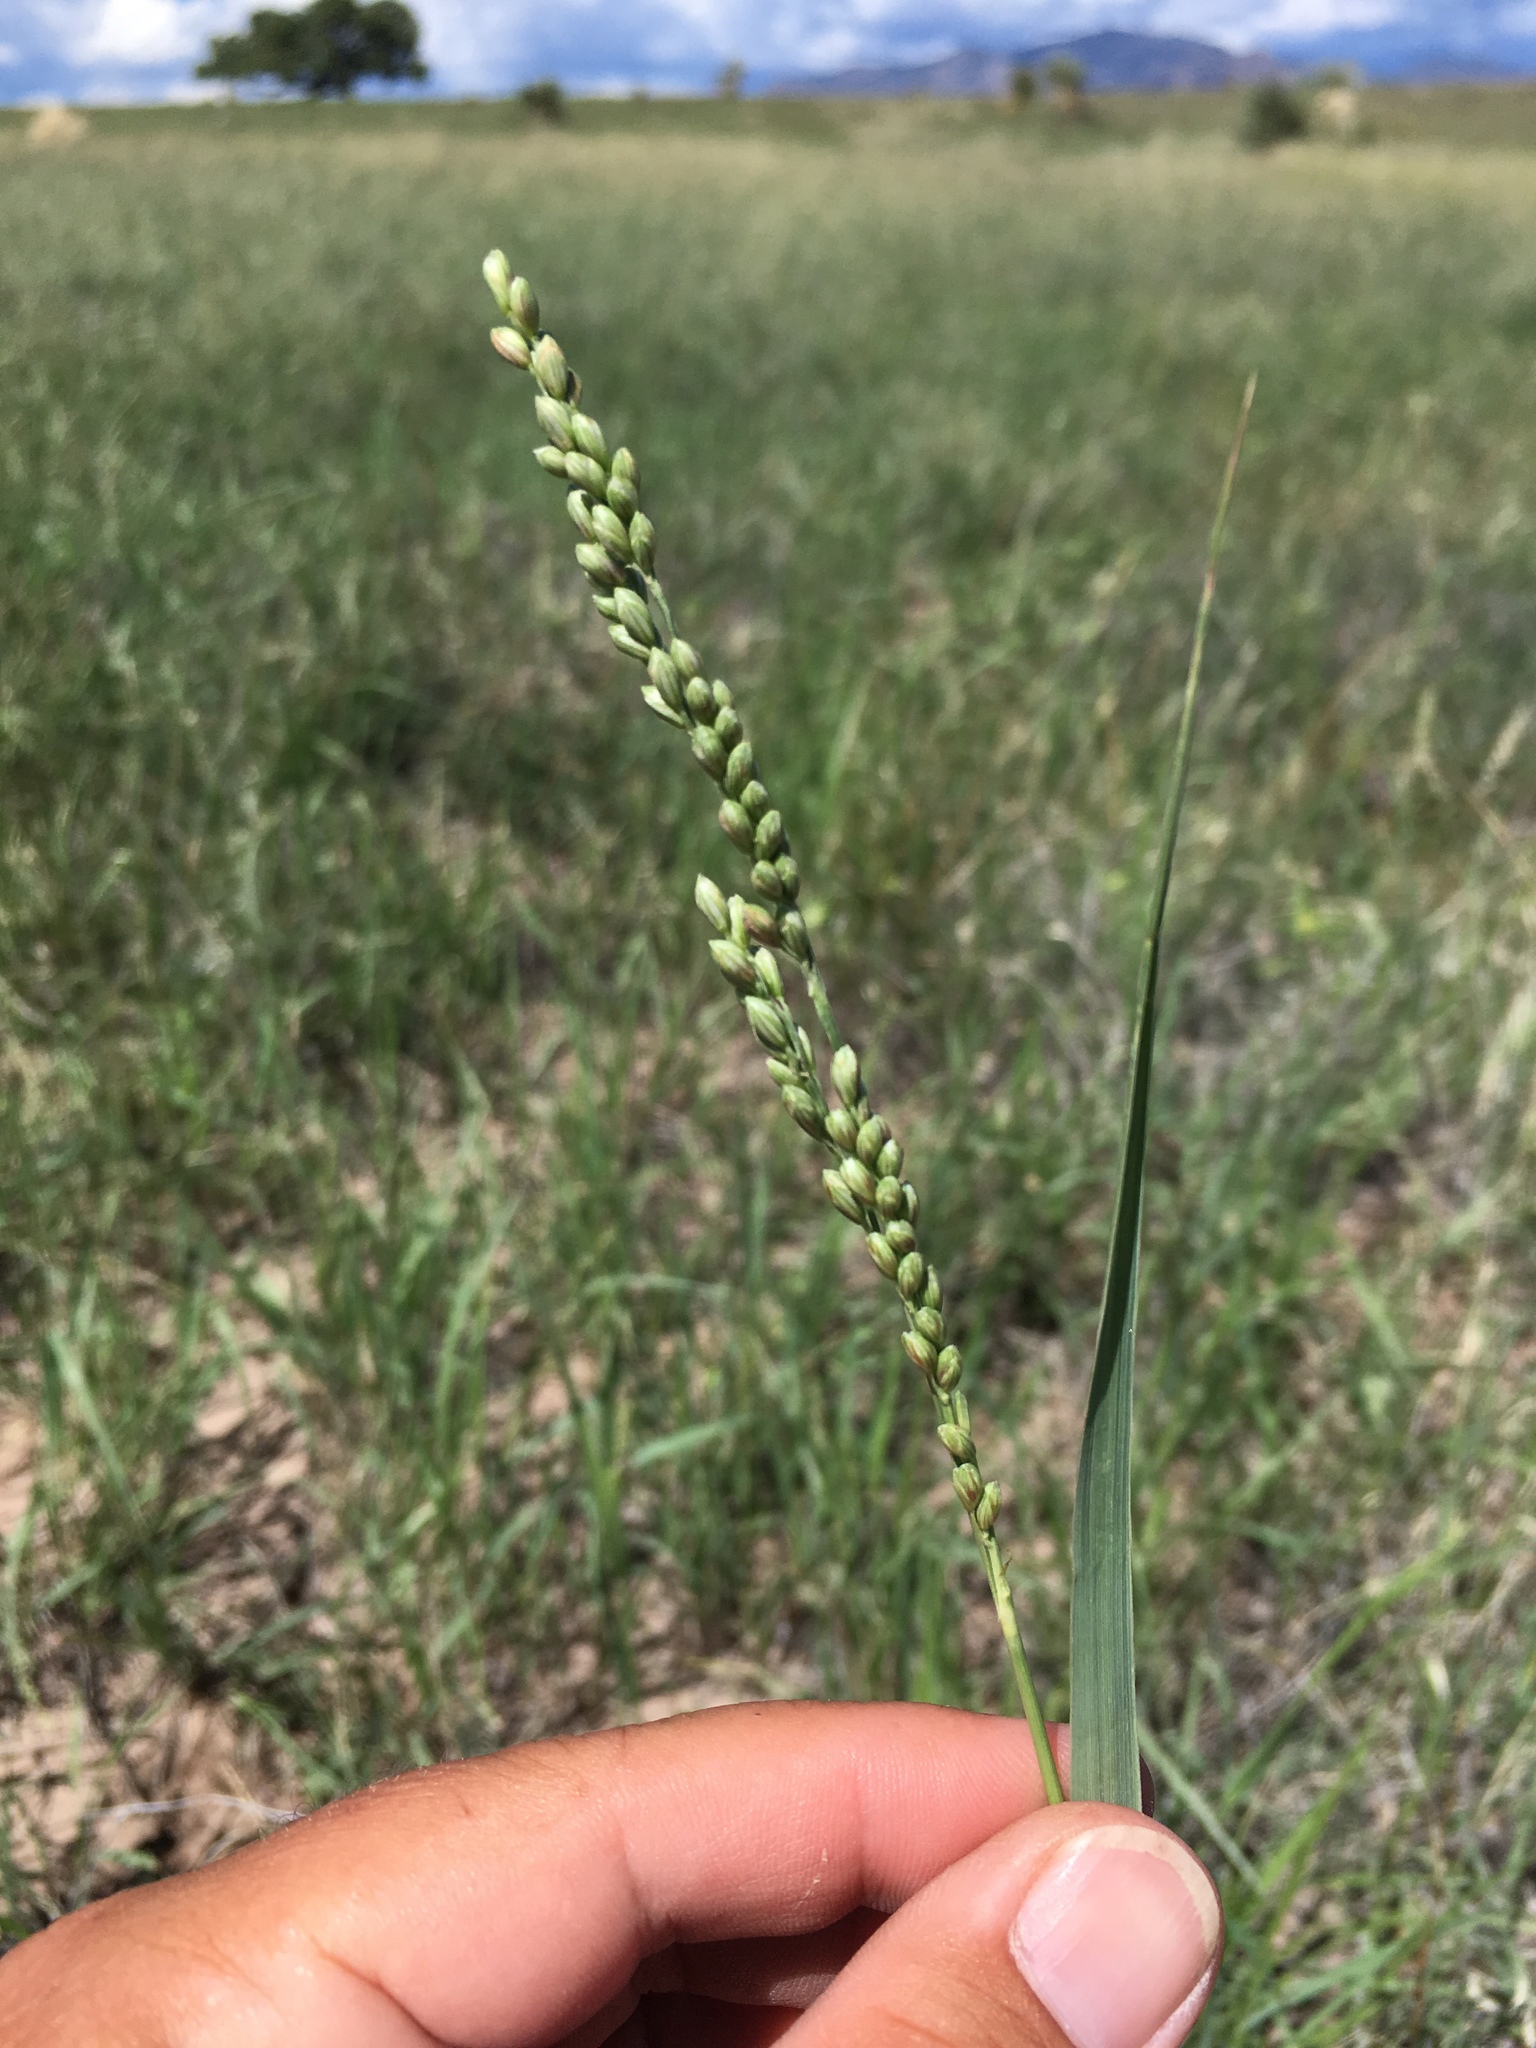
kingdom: Plantae
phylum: Tracheophyta
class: Liliopsida
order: Poales
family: Poaceae
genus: Hopia
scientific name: Hopia obtusa
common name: Vine-mesquite
